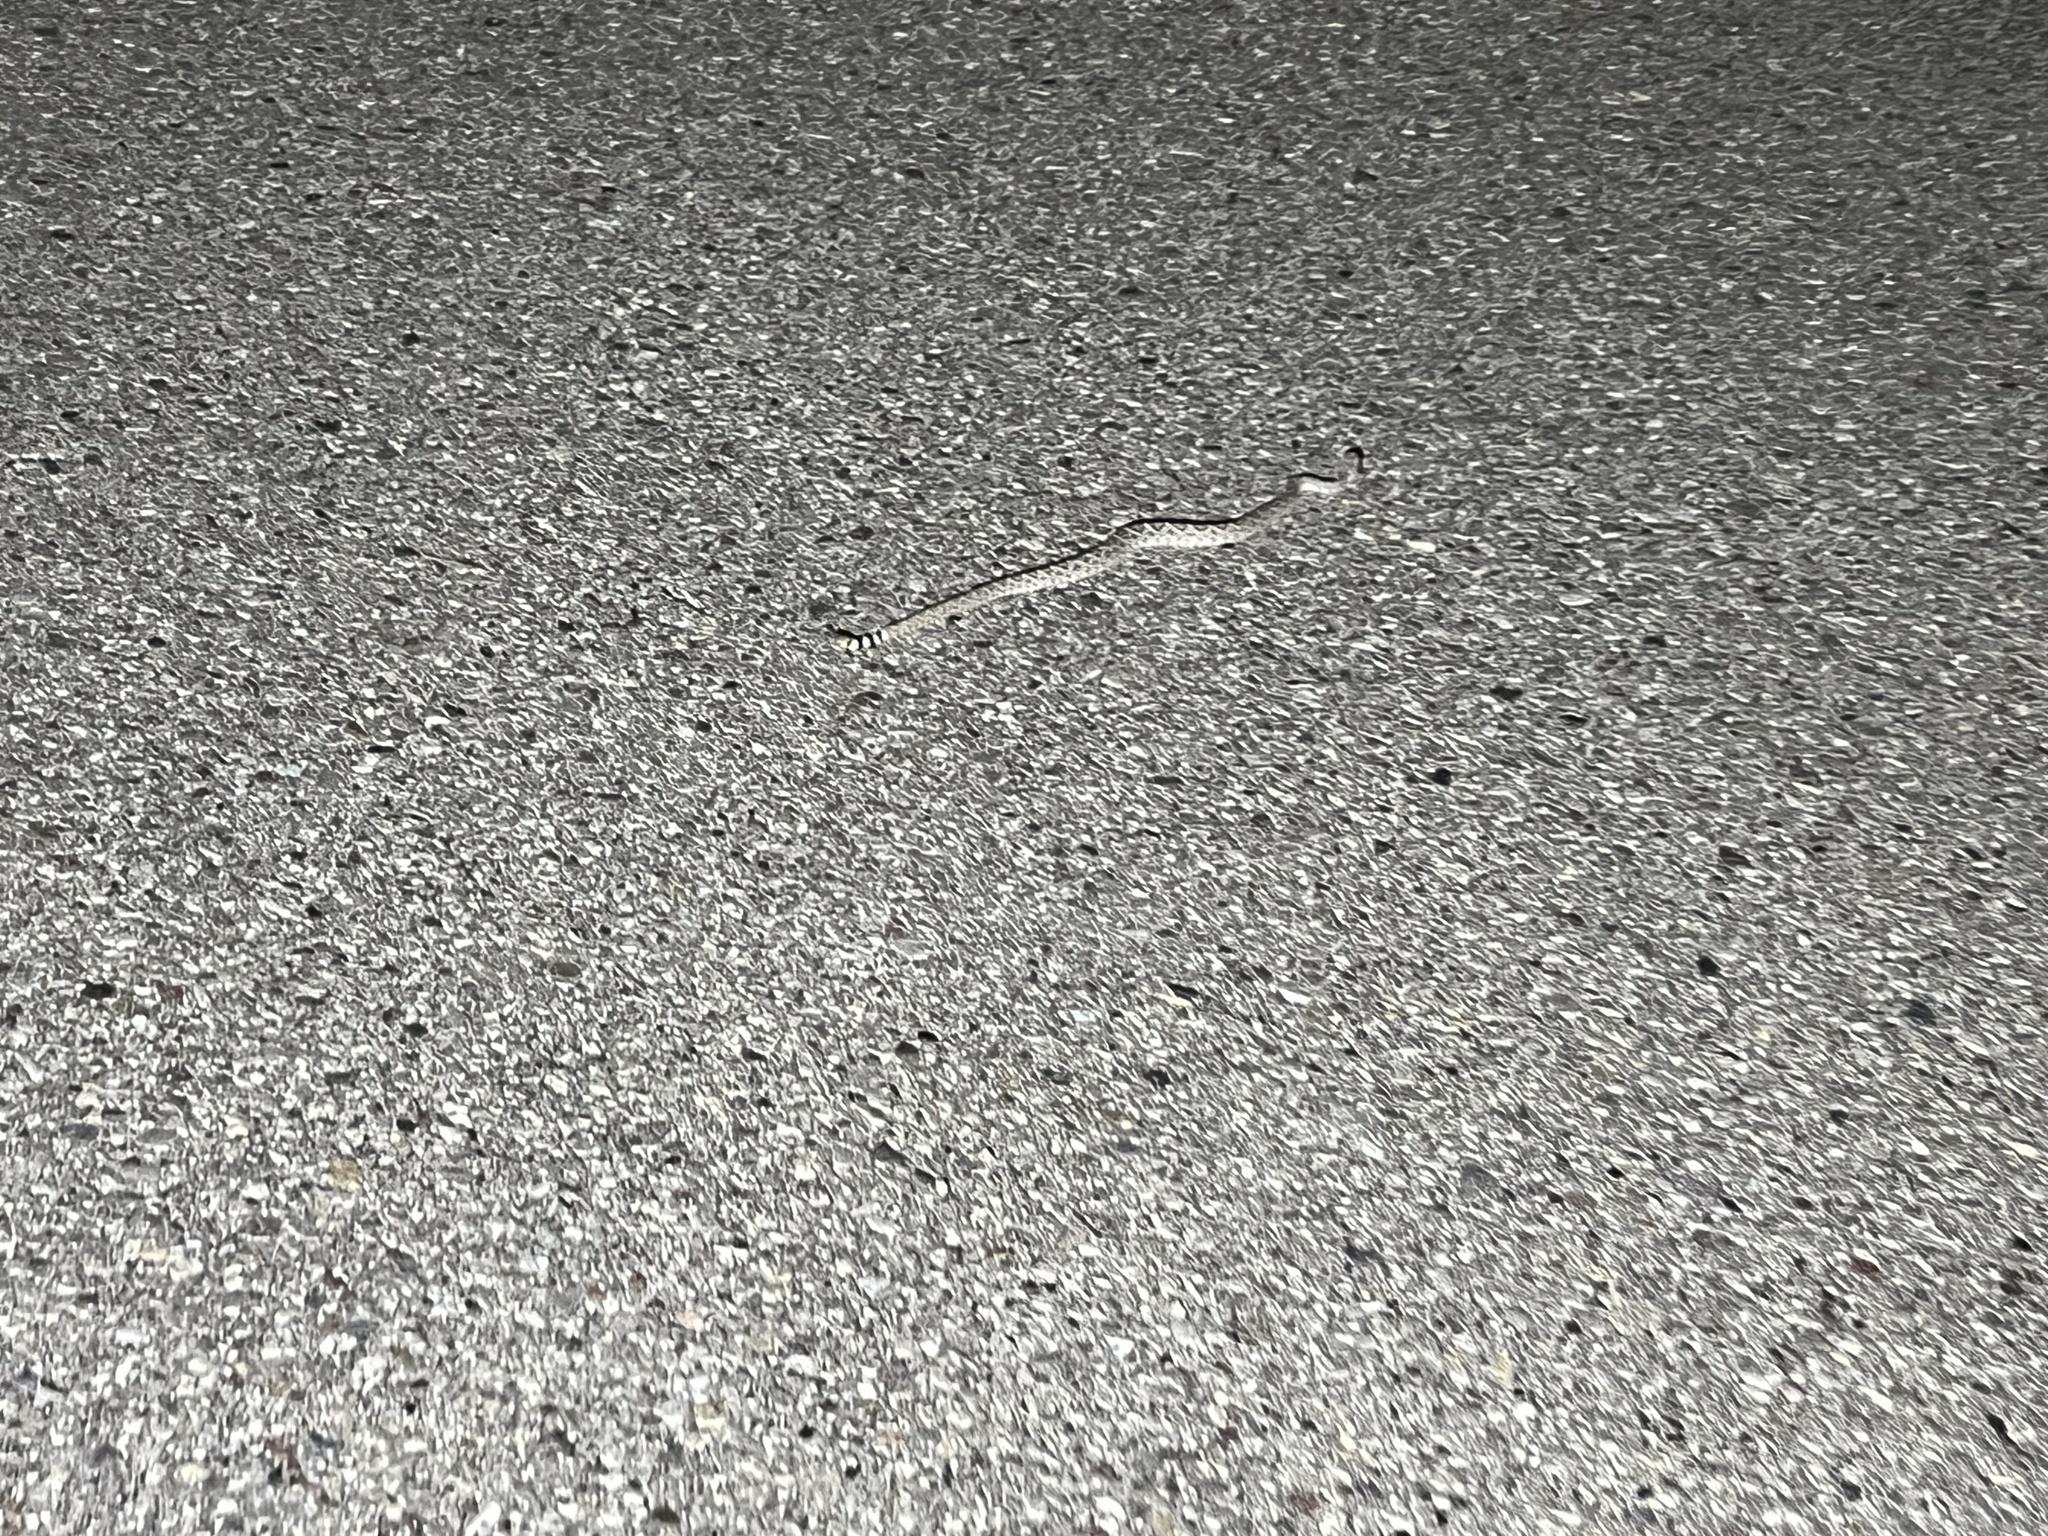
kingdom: Animalia
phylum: Chordata
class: Squamata
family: Viperidae
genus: Crotalus
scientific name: Crotalus atrox
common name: Western diamond-backed rattlesnake
